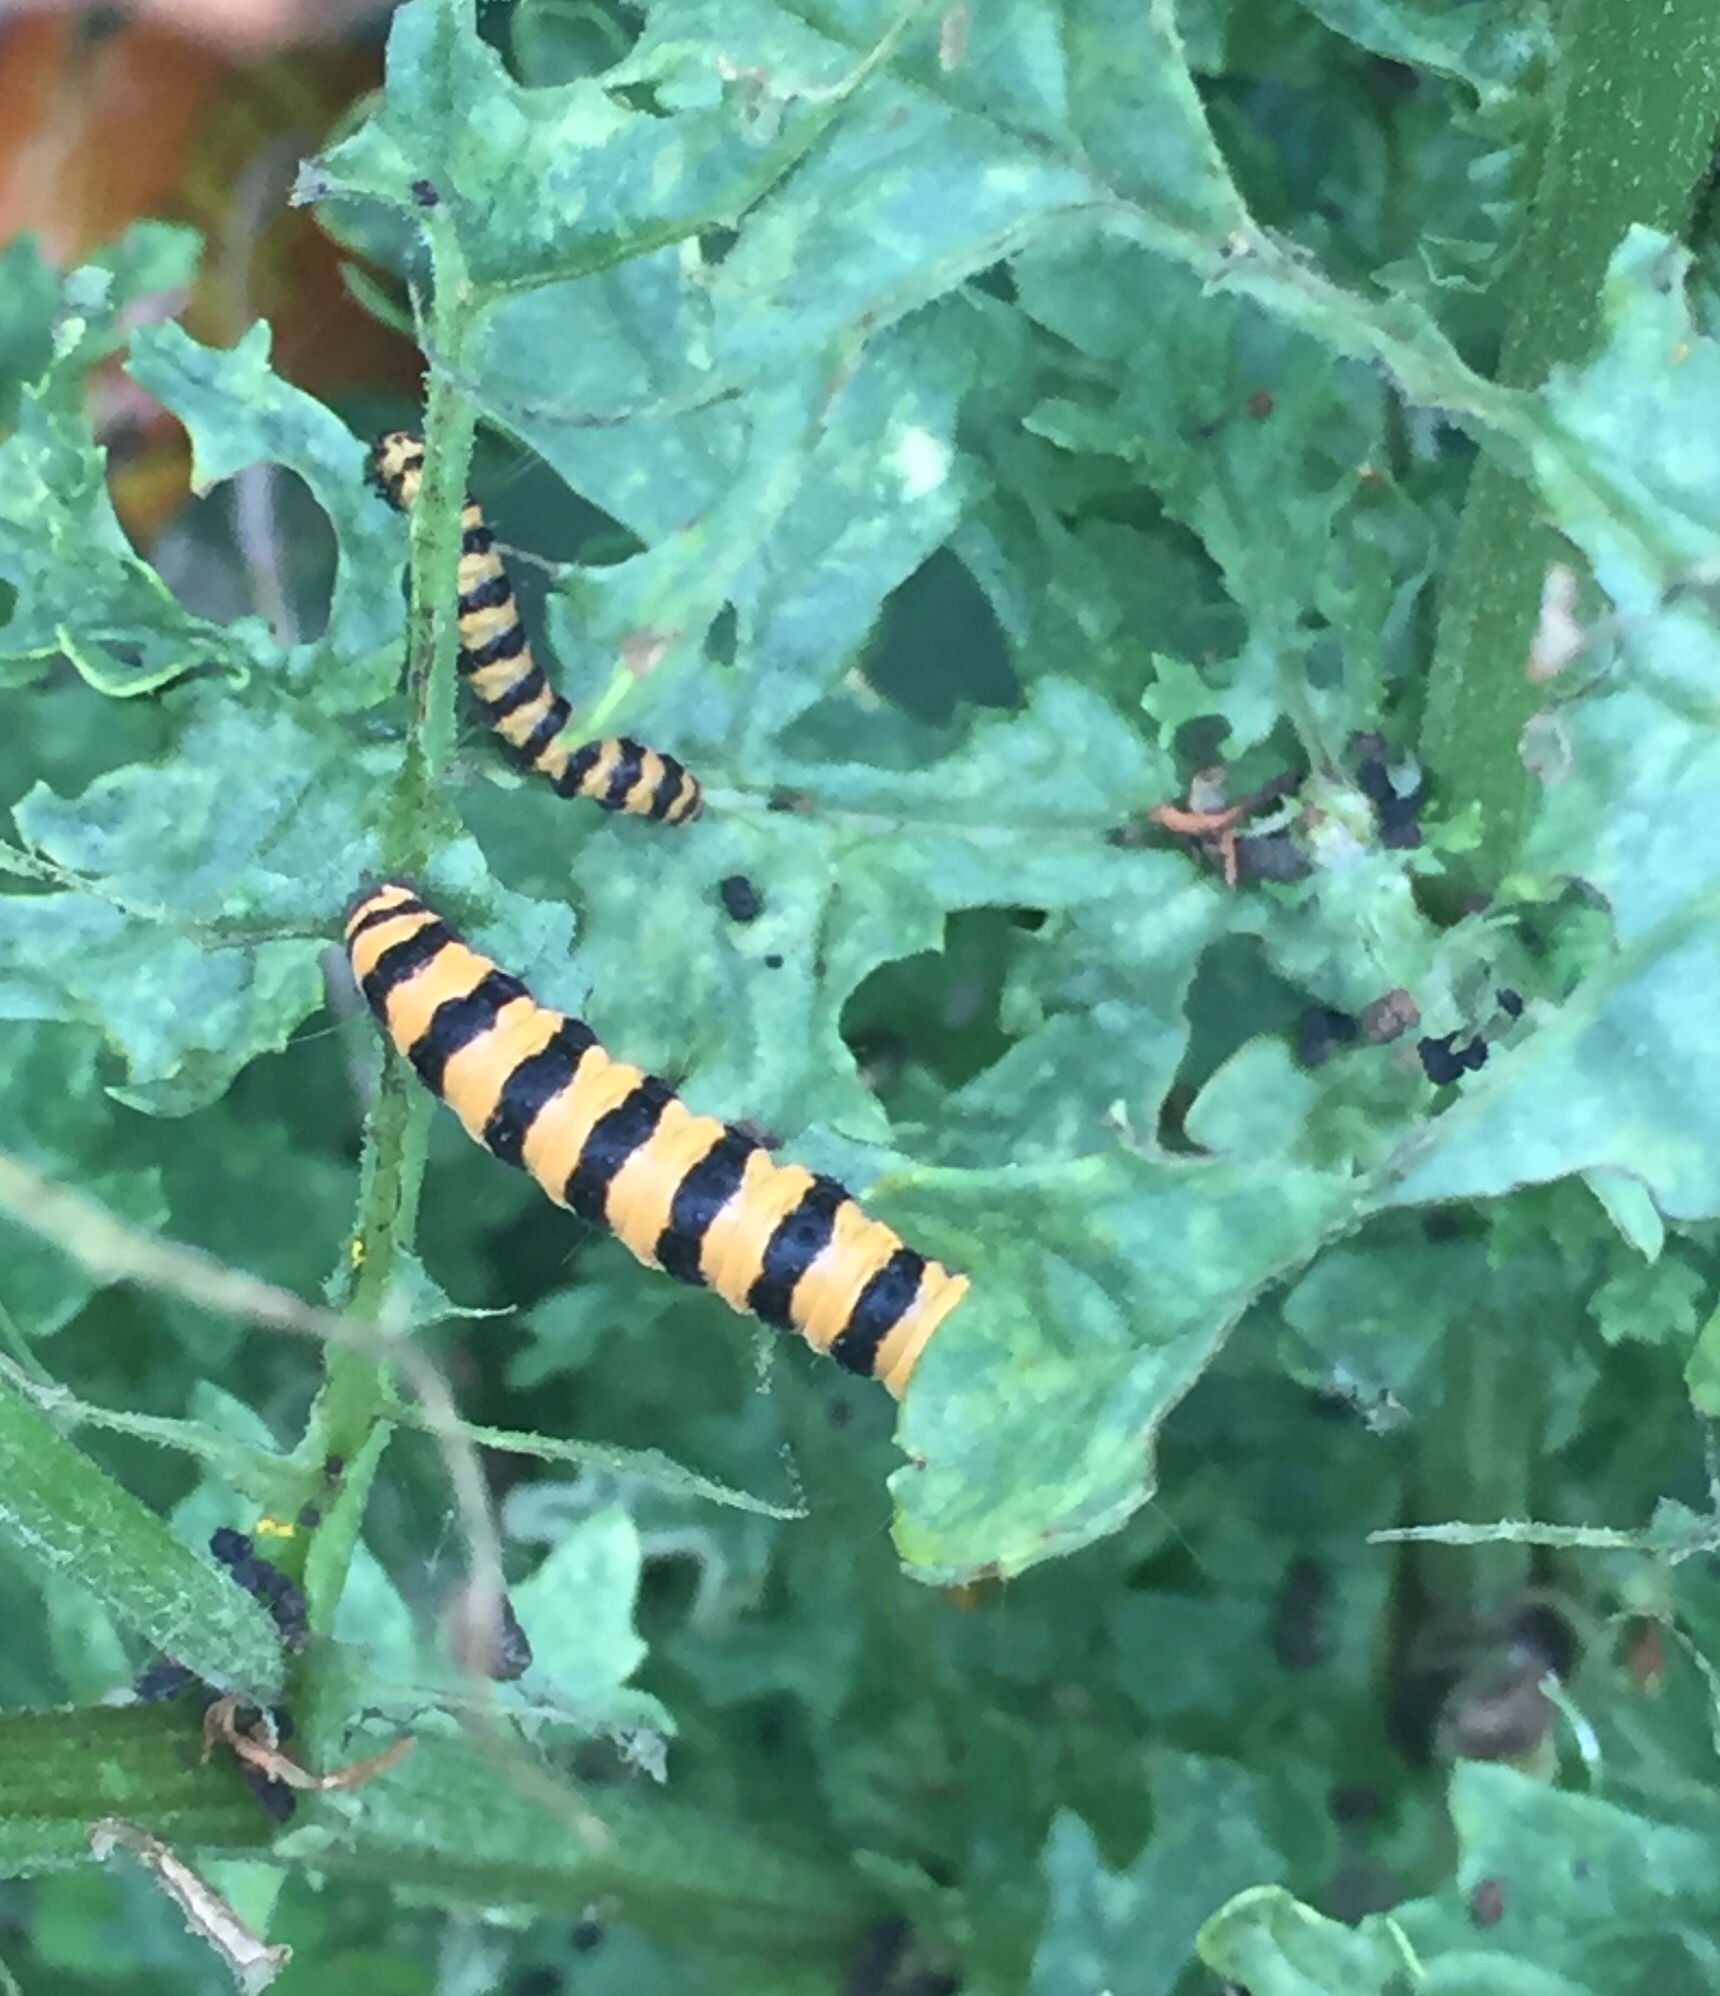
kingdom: Animalia
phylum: Arthropoda
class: Insecta
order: Lepidoptera
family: Erebidae
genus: Tyria
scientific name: Tyria jacobaeae
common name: Cinnabar
